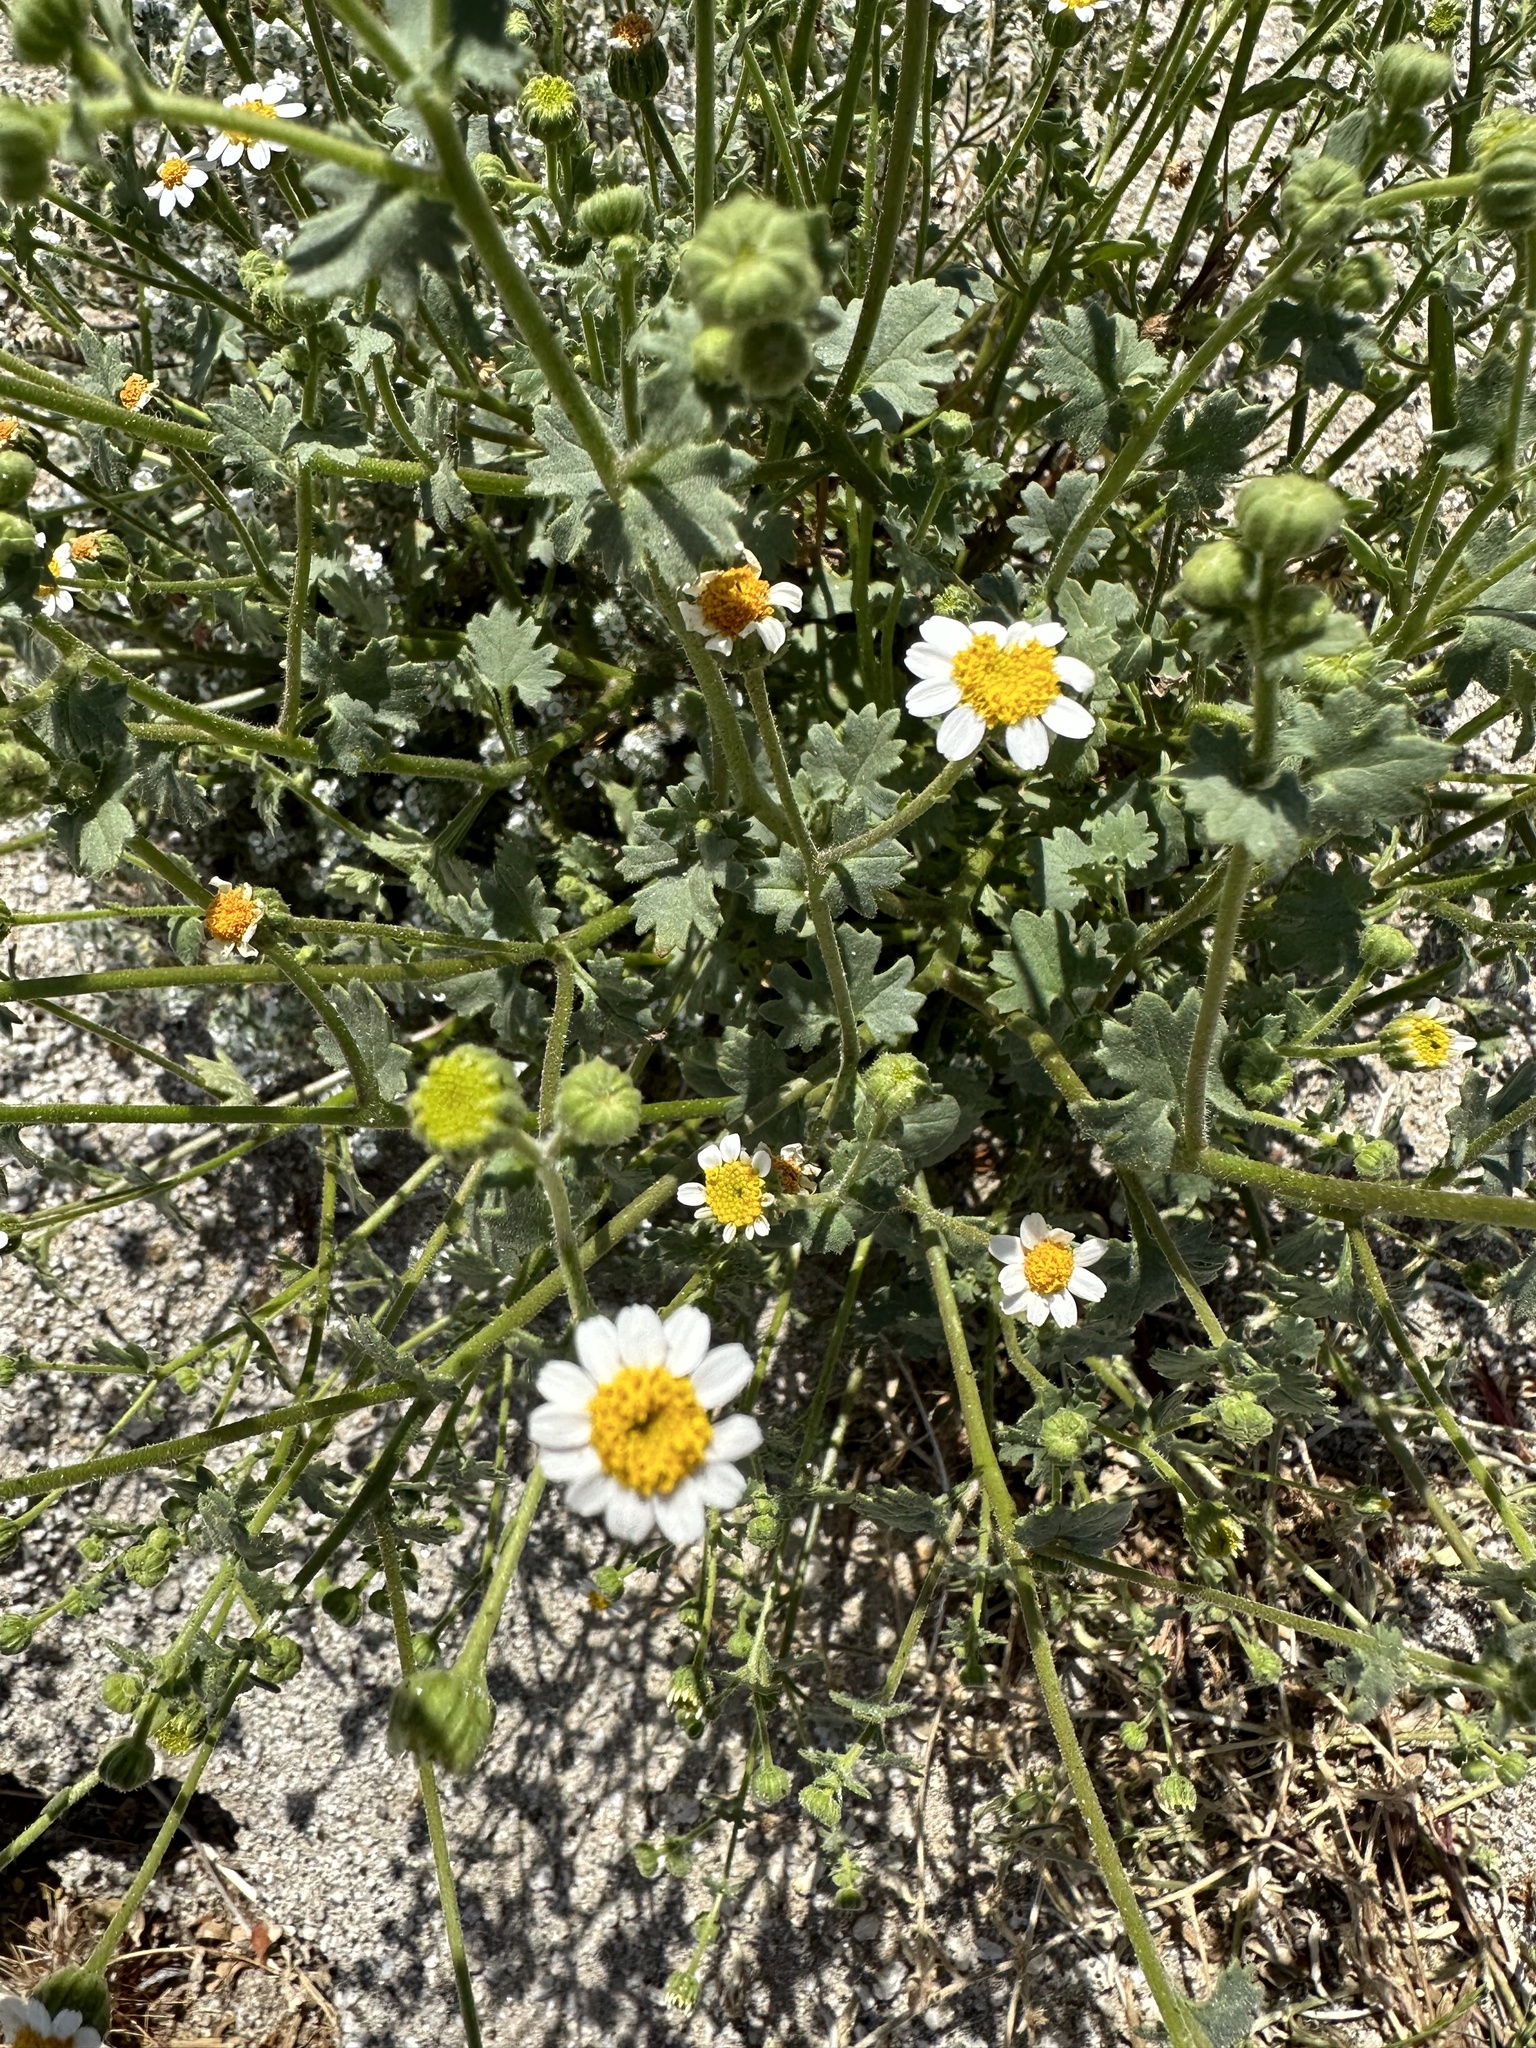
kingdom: Plantae
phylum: Tracheophyta
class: Magnoliopsida
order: Asterales
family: Asteraceae
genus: Laphamia
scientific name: Laphamia emoryi
